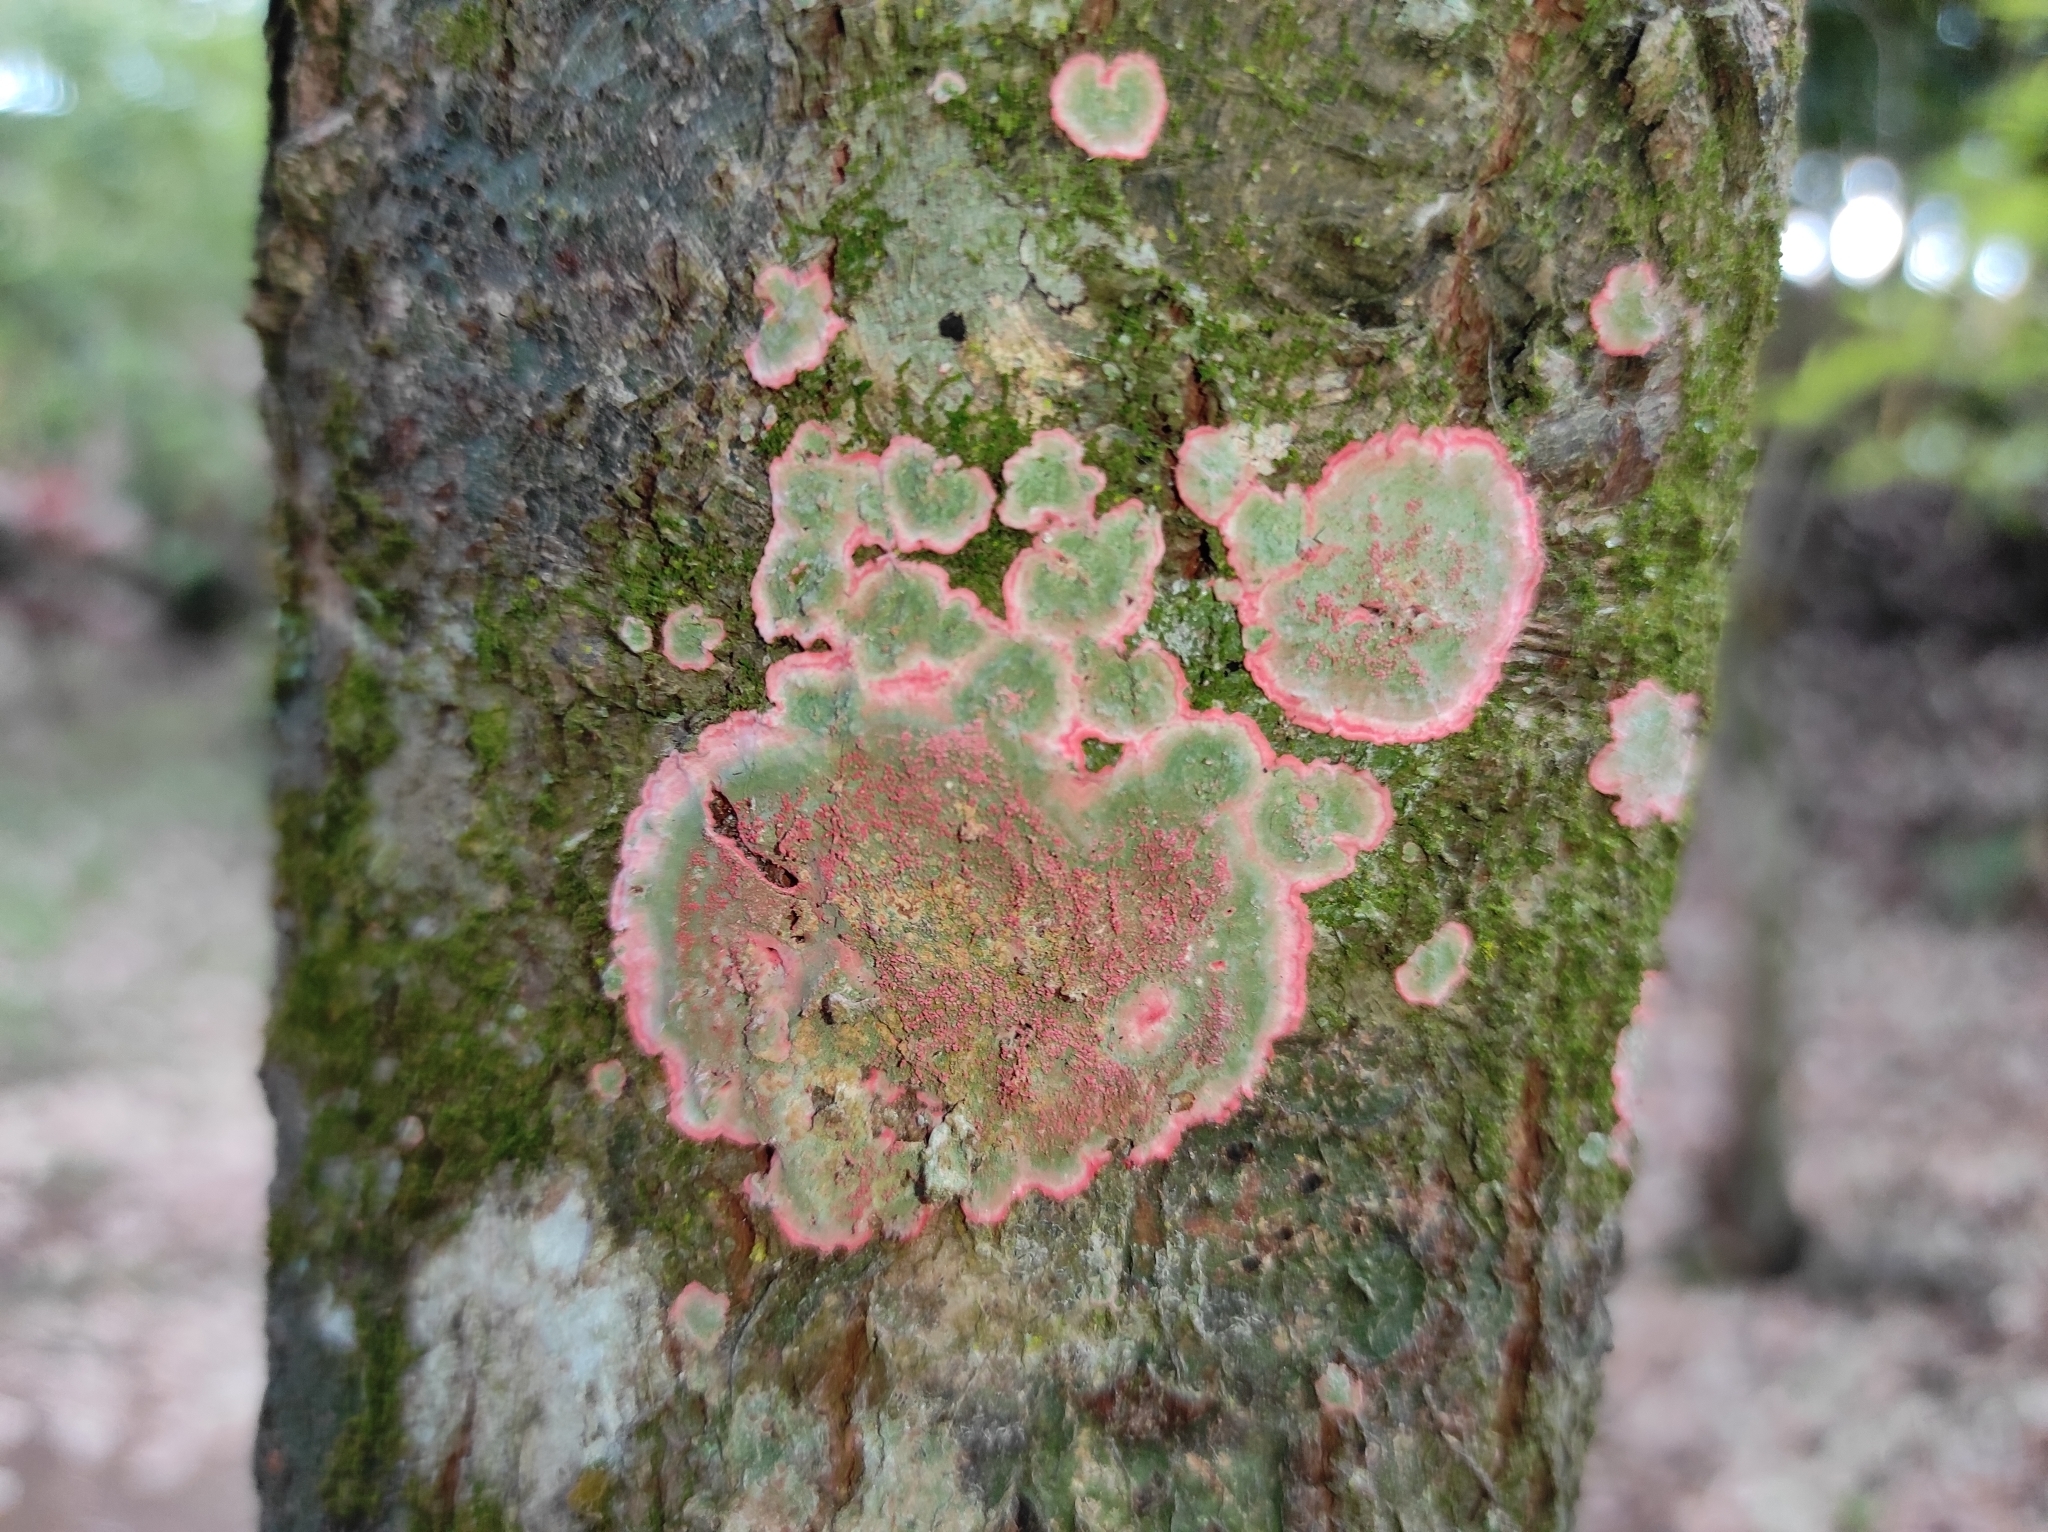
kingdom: Fungi
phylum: Ascomycota
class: Arthoniomycetes
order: Arthoniales
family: Arthoniaceae
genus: Herpothallon
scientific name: Herpothallon rubrocinctum
